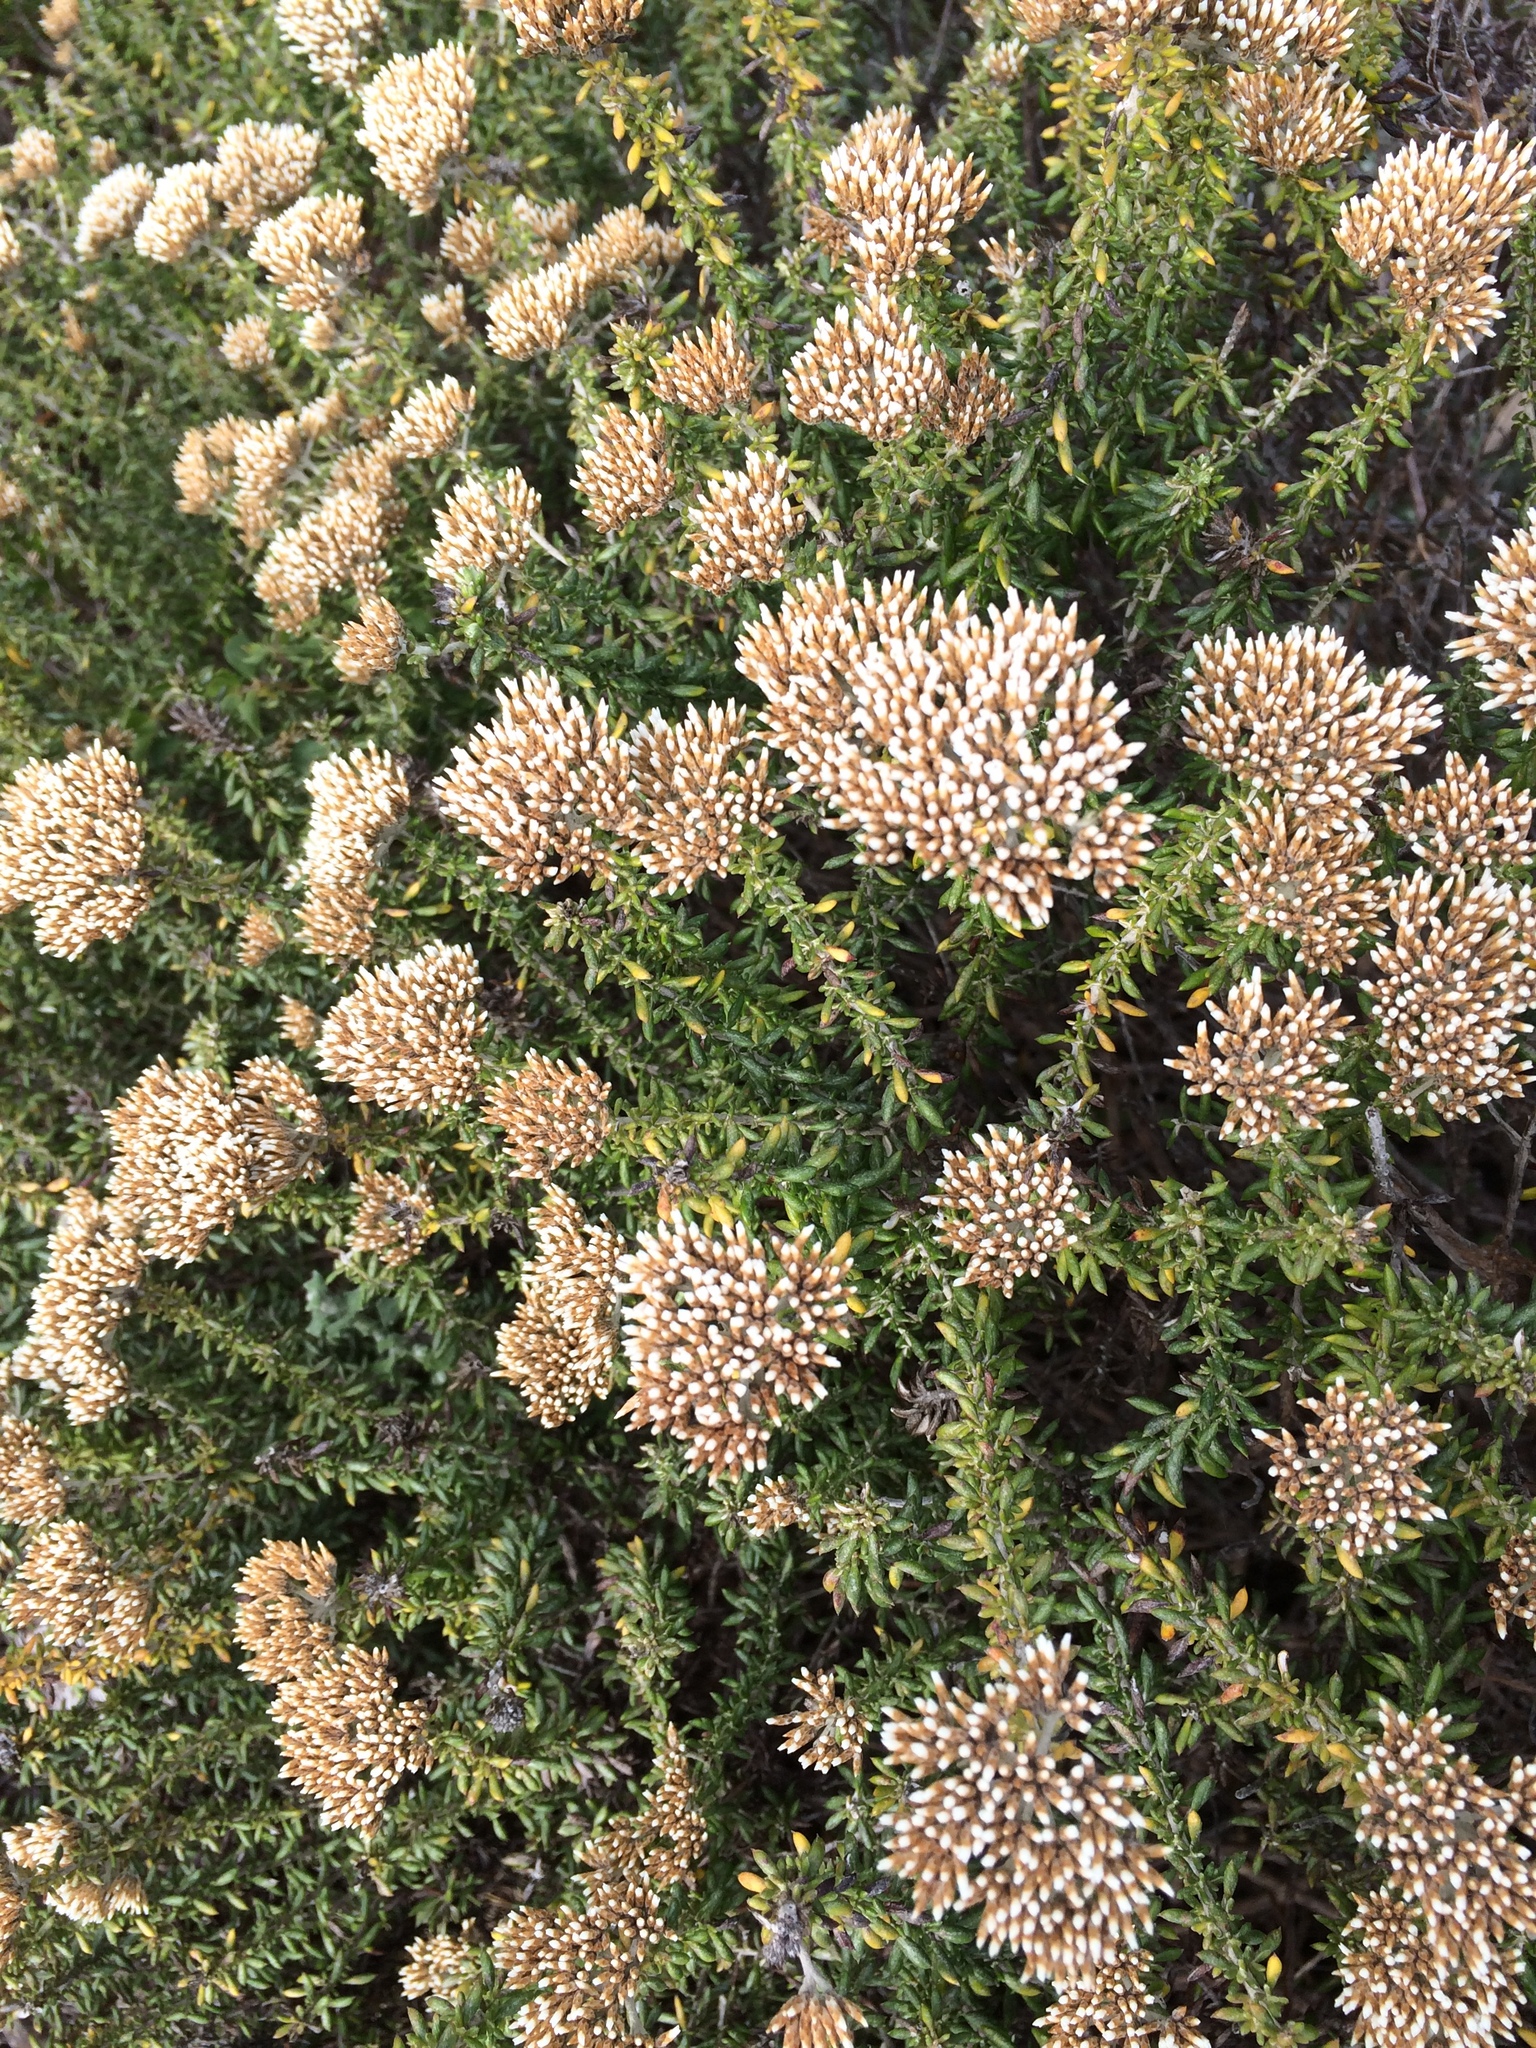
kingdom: Plantae
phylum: Tracheophyta
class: Magnoliopsida
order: Asterales
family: Asteraceae
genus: Metalasia
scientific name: Metalasia densa
